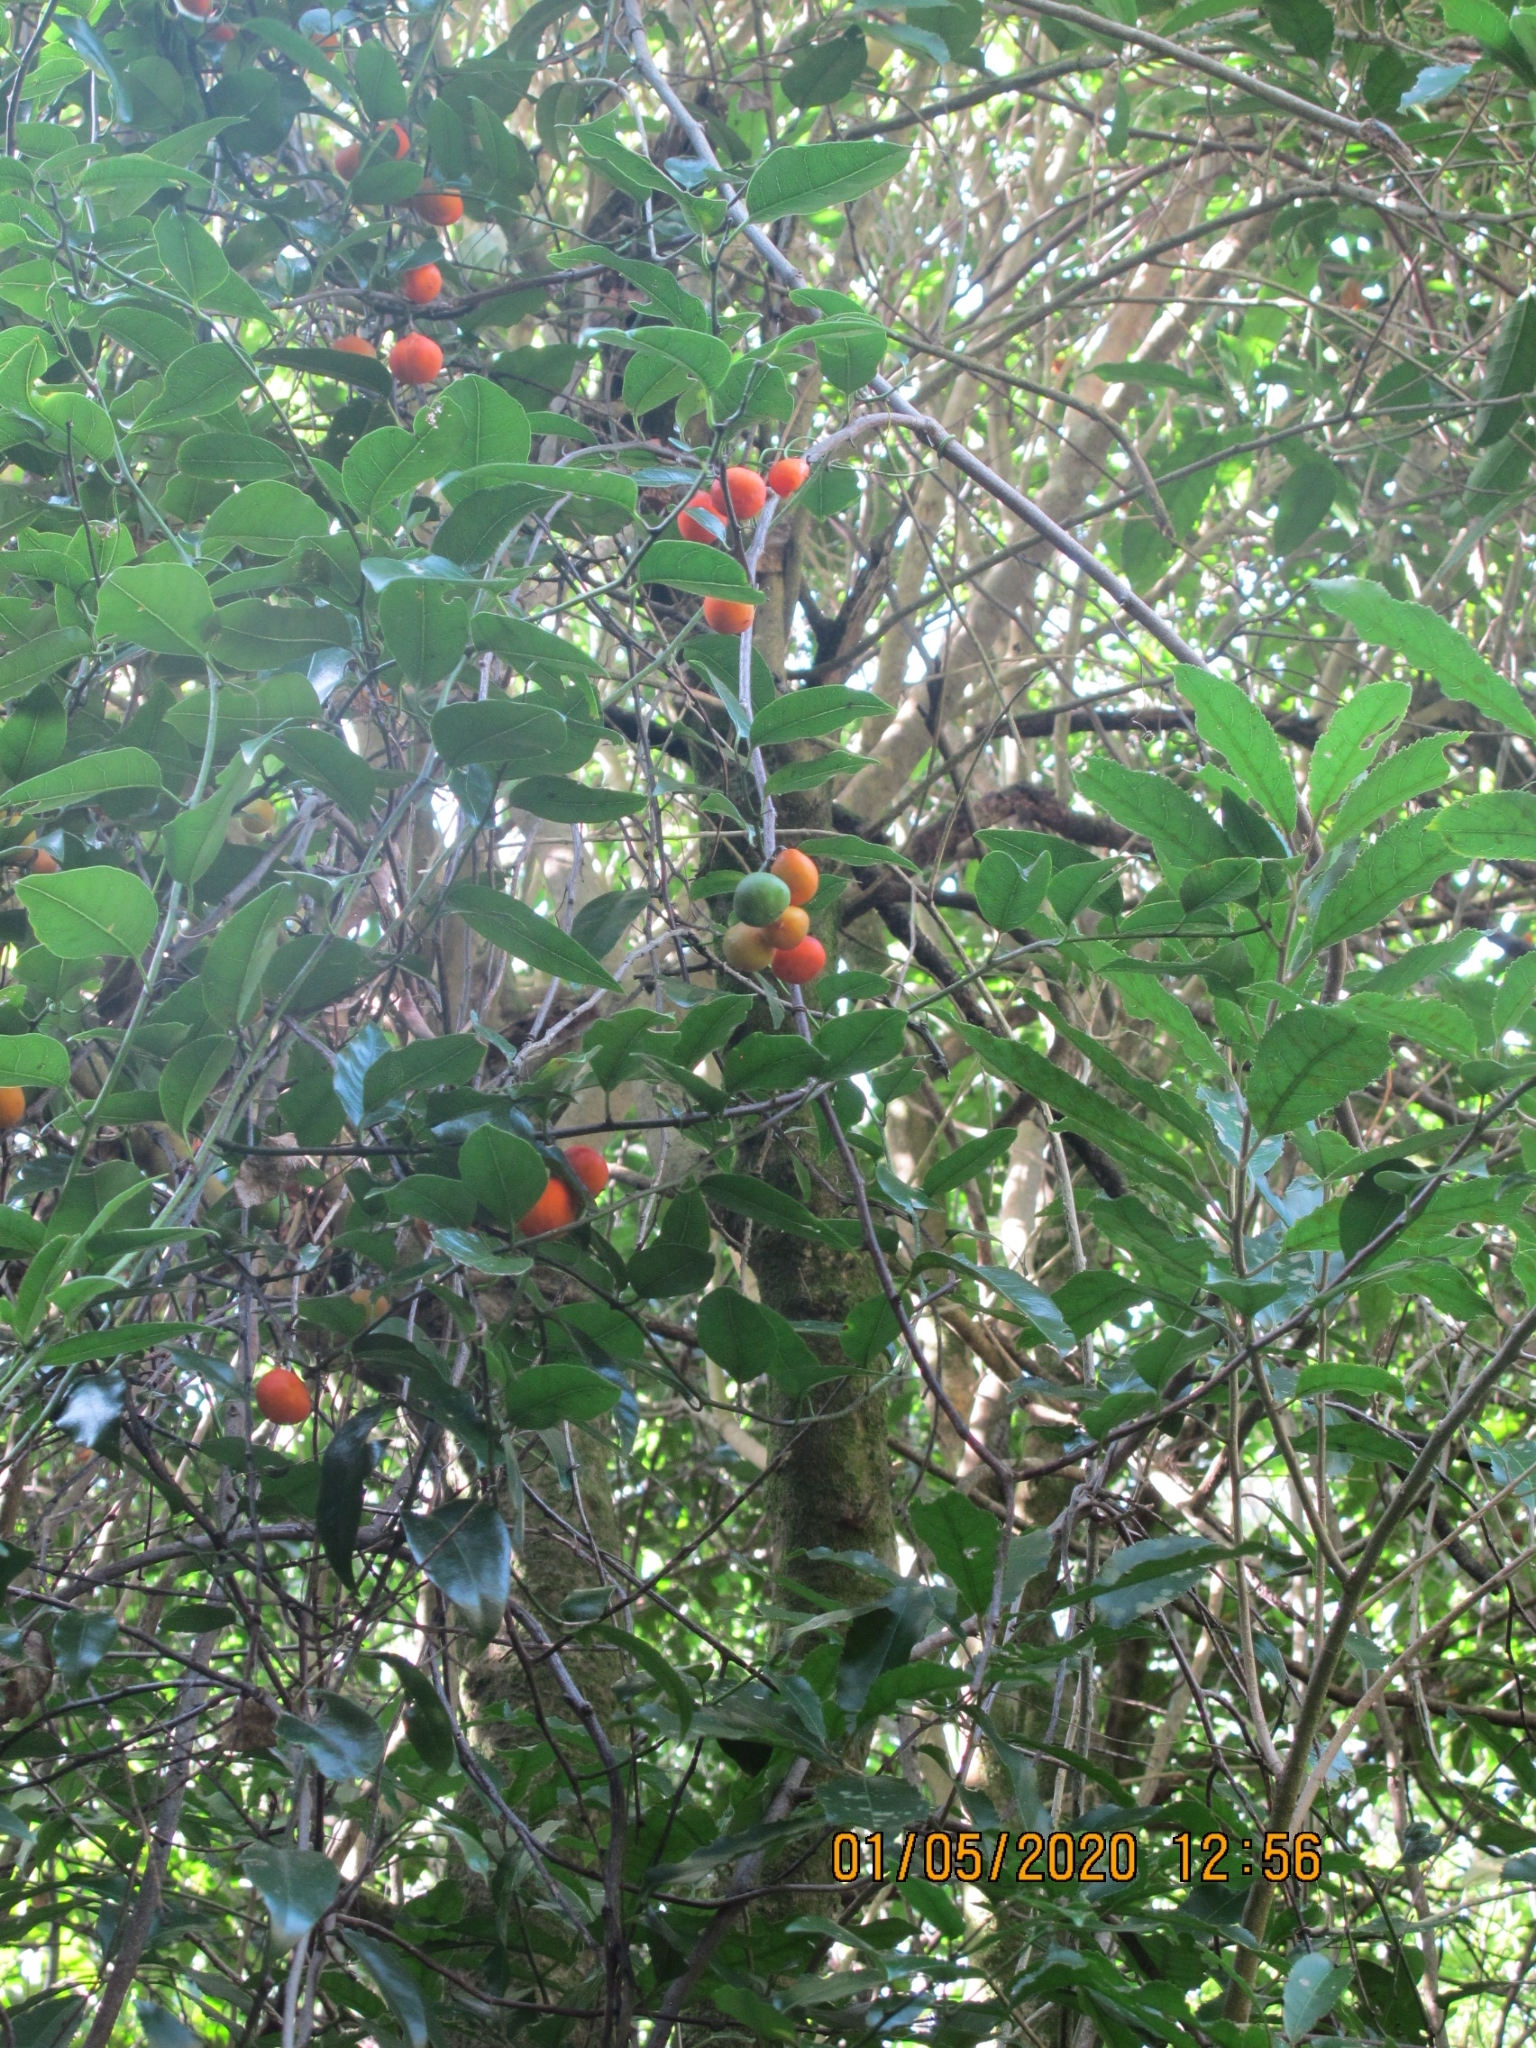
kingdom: Plantae
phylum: Tracheophyta
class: Magnoliopsida
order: Malpighiales
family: Passifloraceae
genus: Passiflora
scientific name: Passiflora tetrandra
